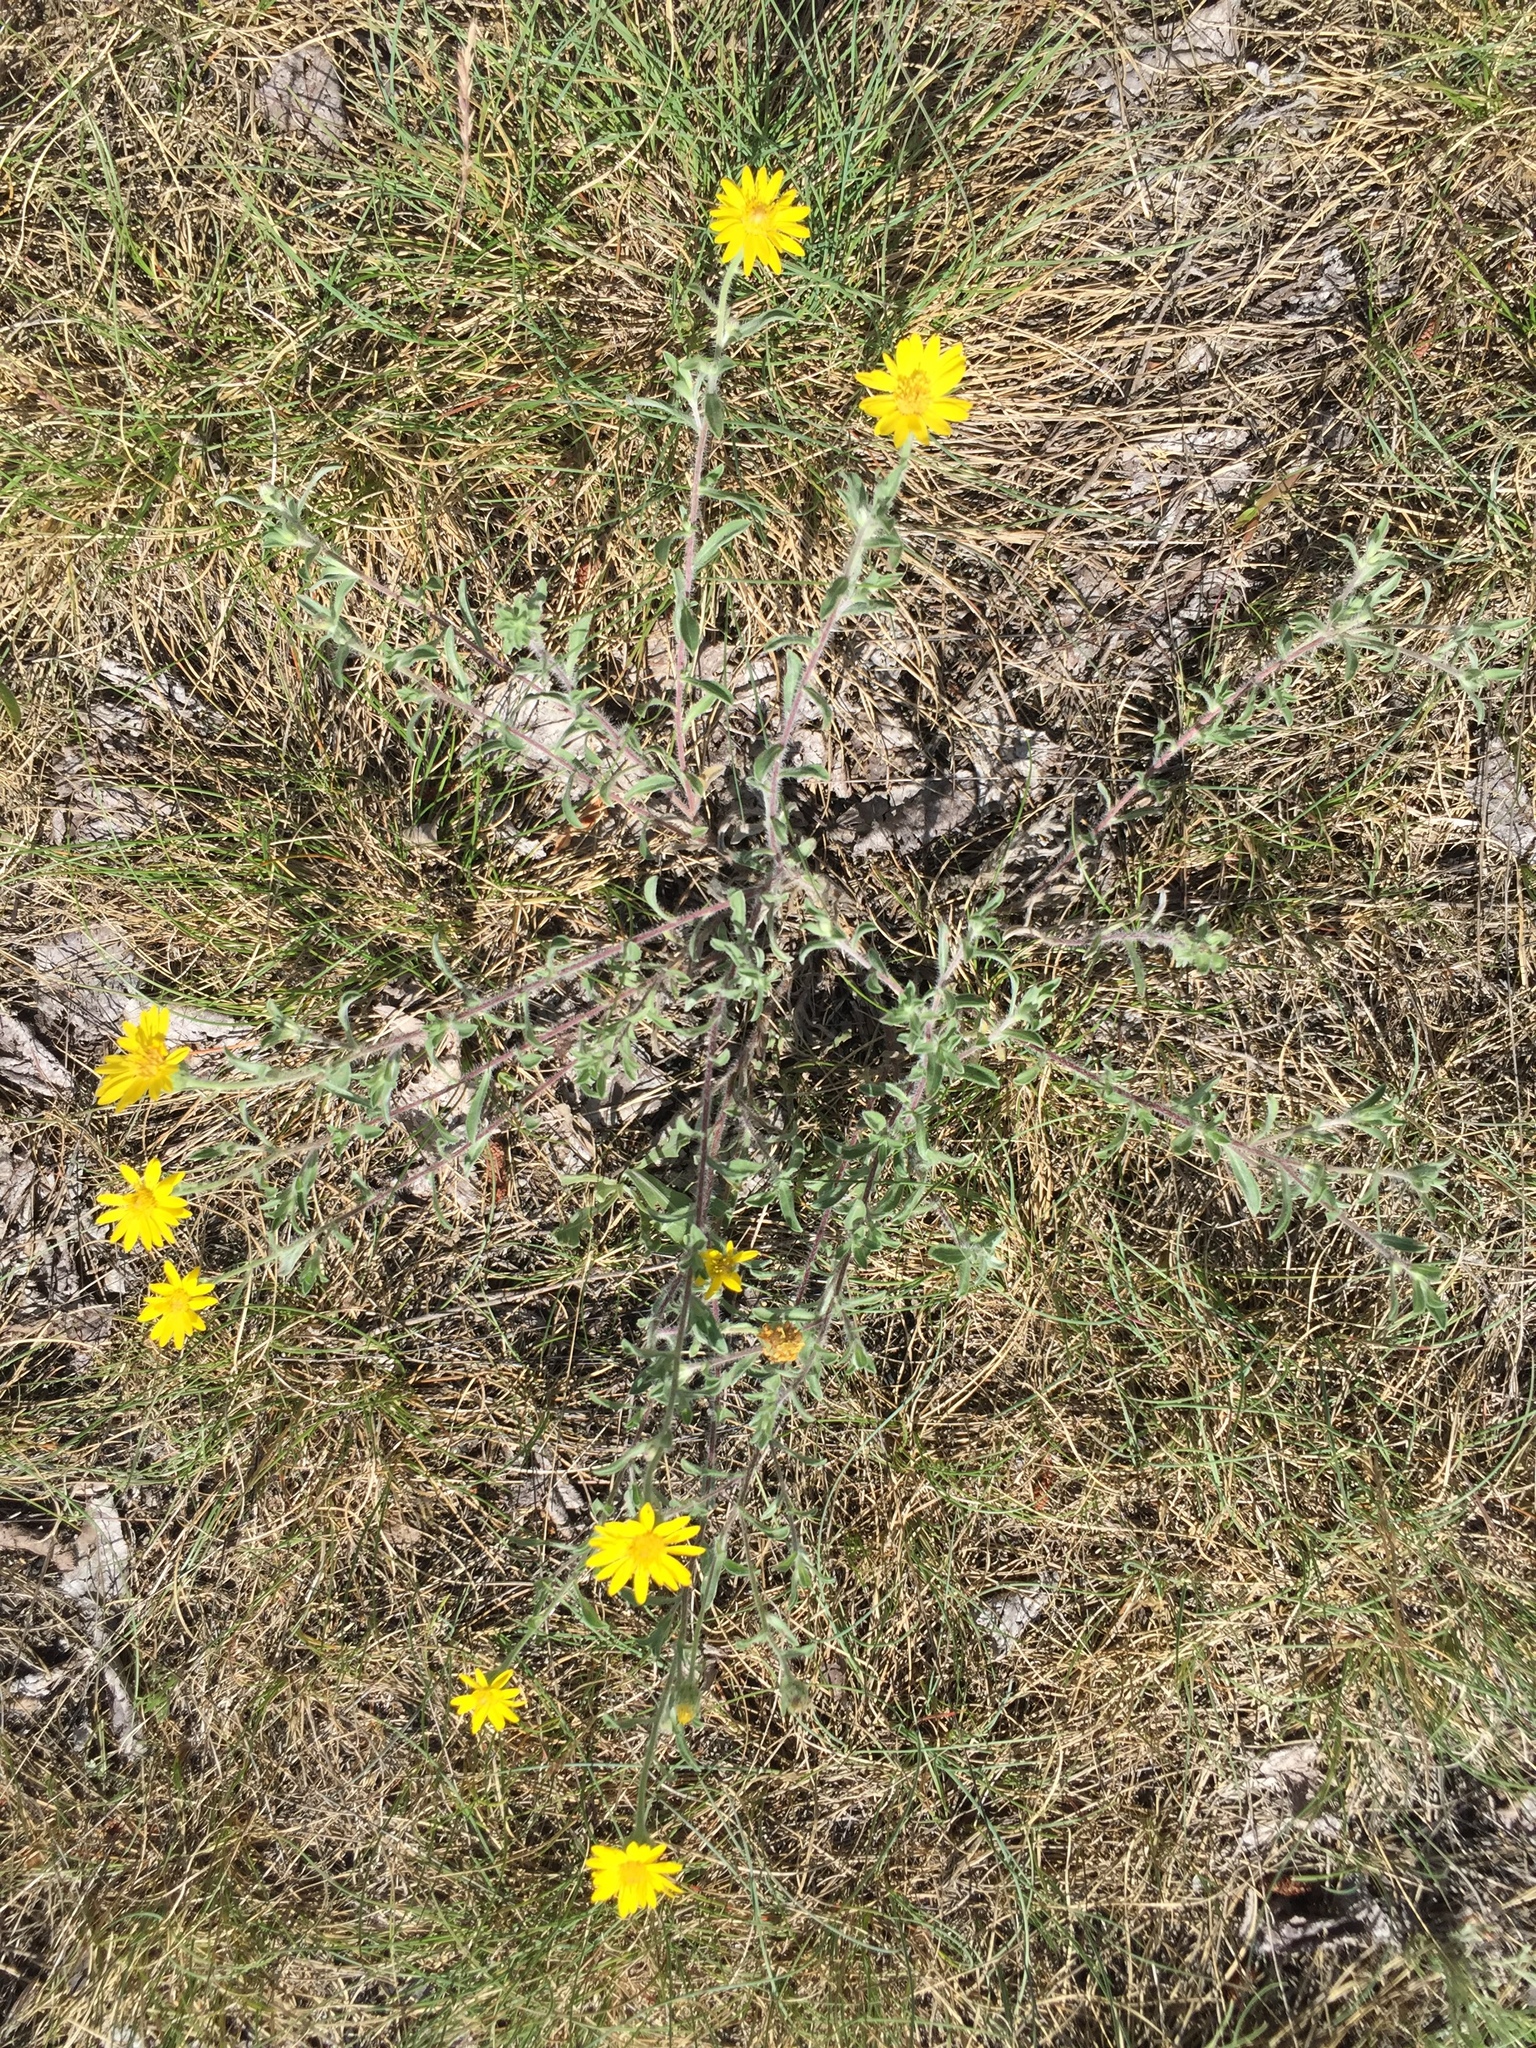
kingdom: Plantae
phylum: Tracheophyta
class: Magnoliopsida
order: Asterales
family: Asteraceae
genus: Heterotheca
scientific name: Heterotheca villosa
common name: Hairy false goldenaster
